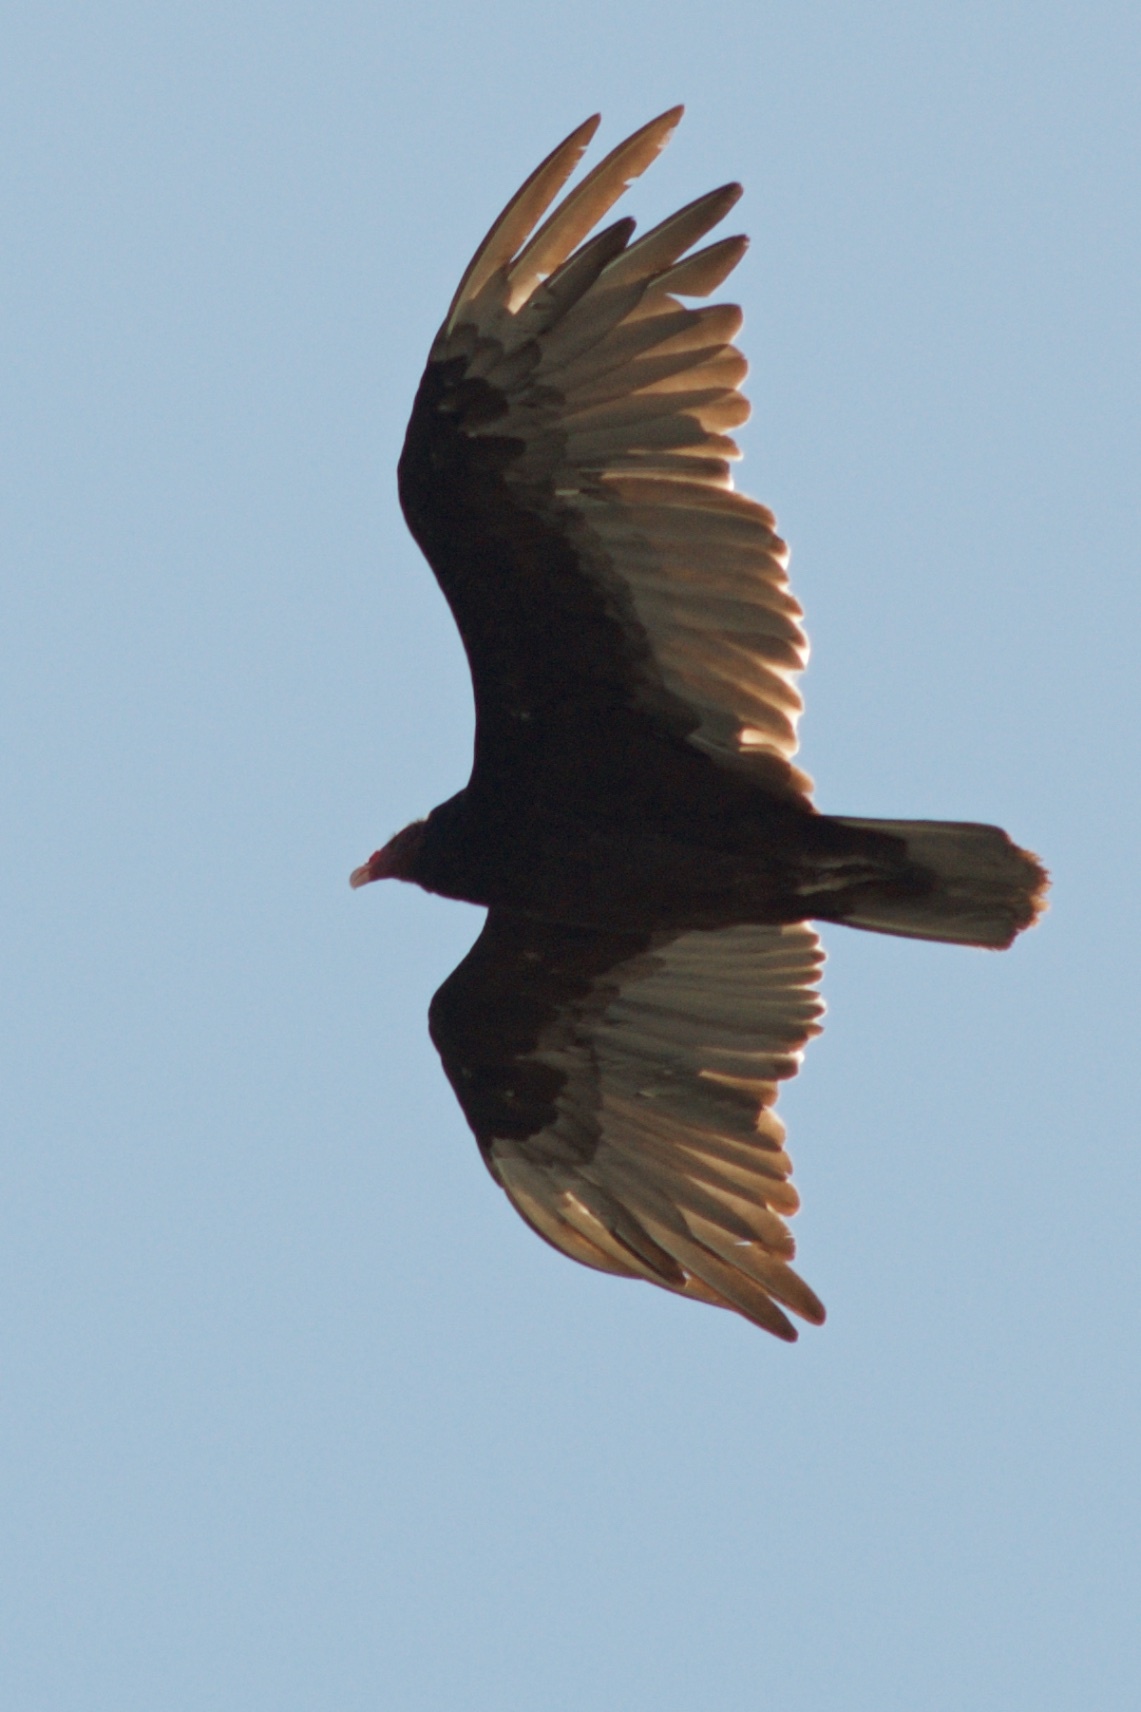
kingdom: Animalia
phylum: Chordata
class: Aves
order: Accipitriformes
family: Cathartidae
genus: Cathartes
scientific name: Cathartes aura
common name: Turkey vulture
